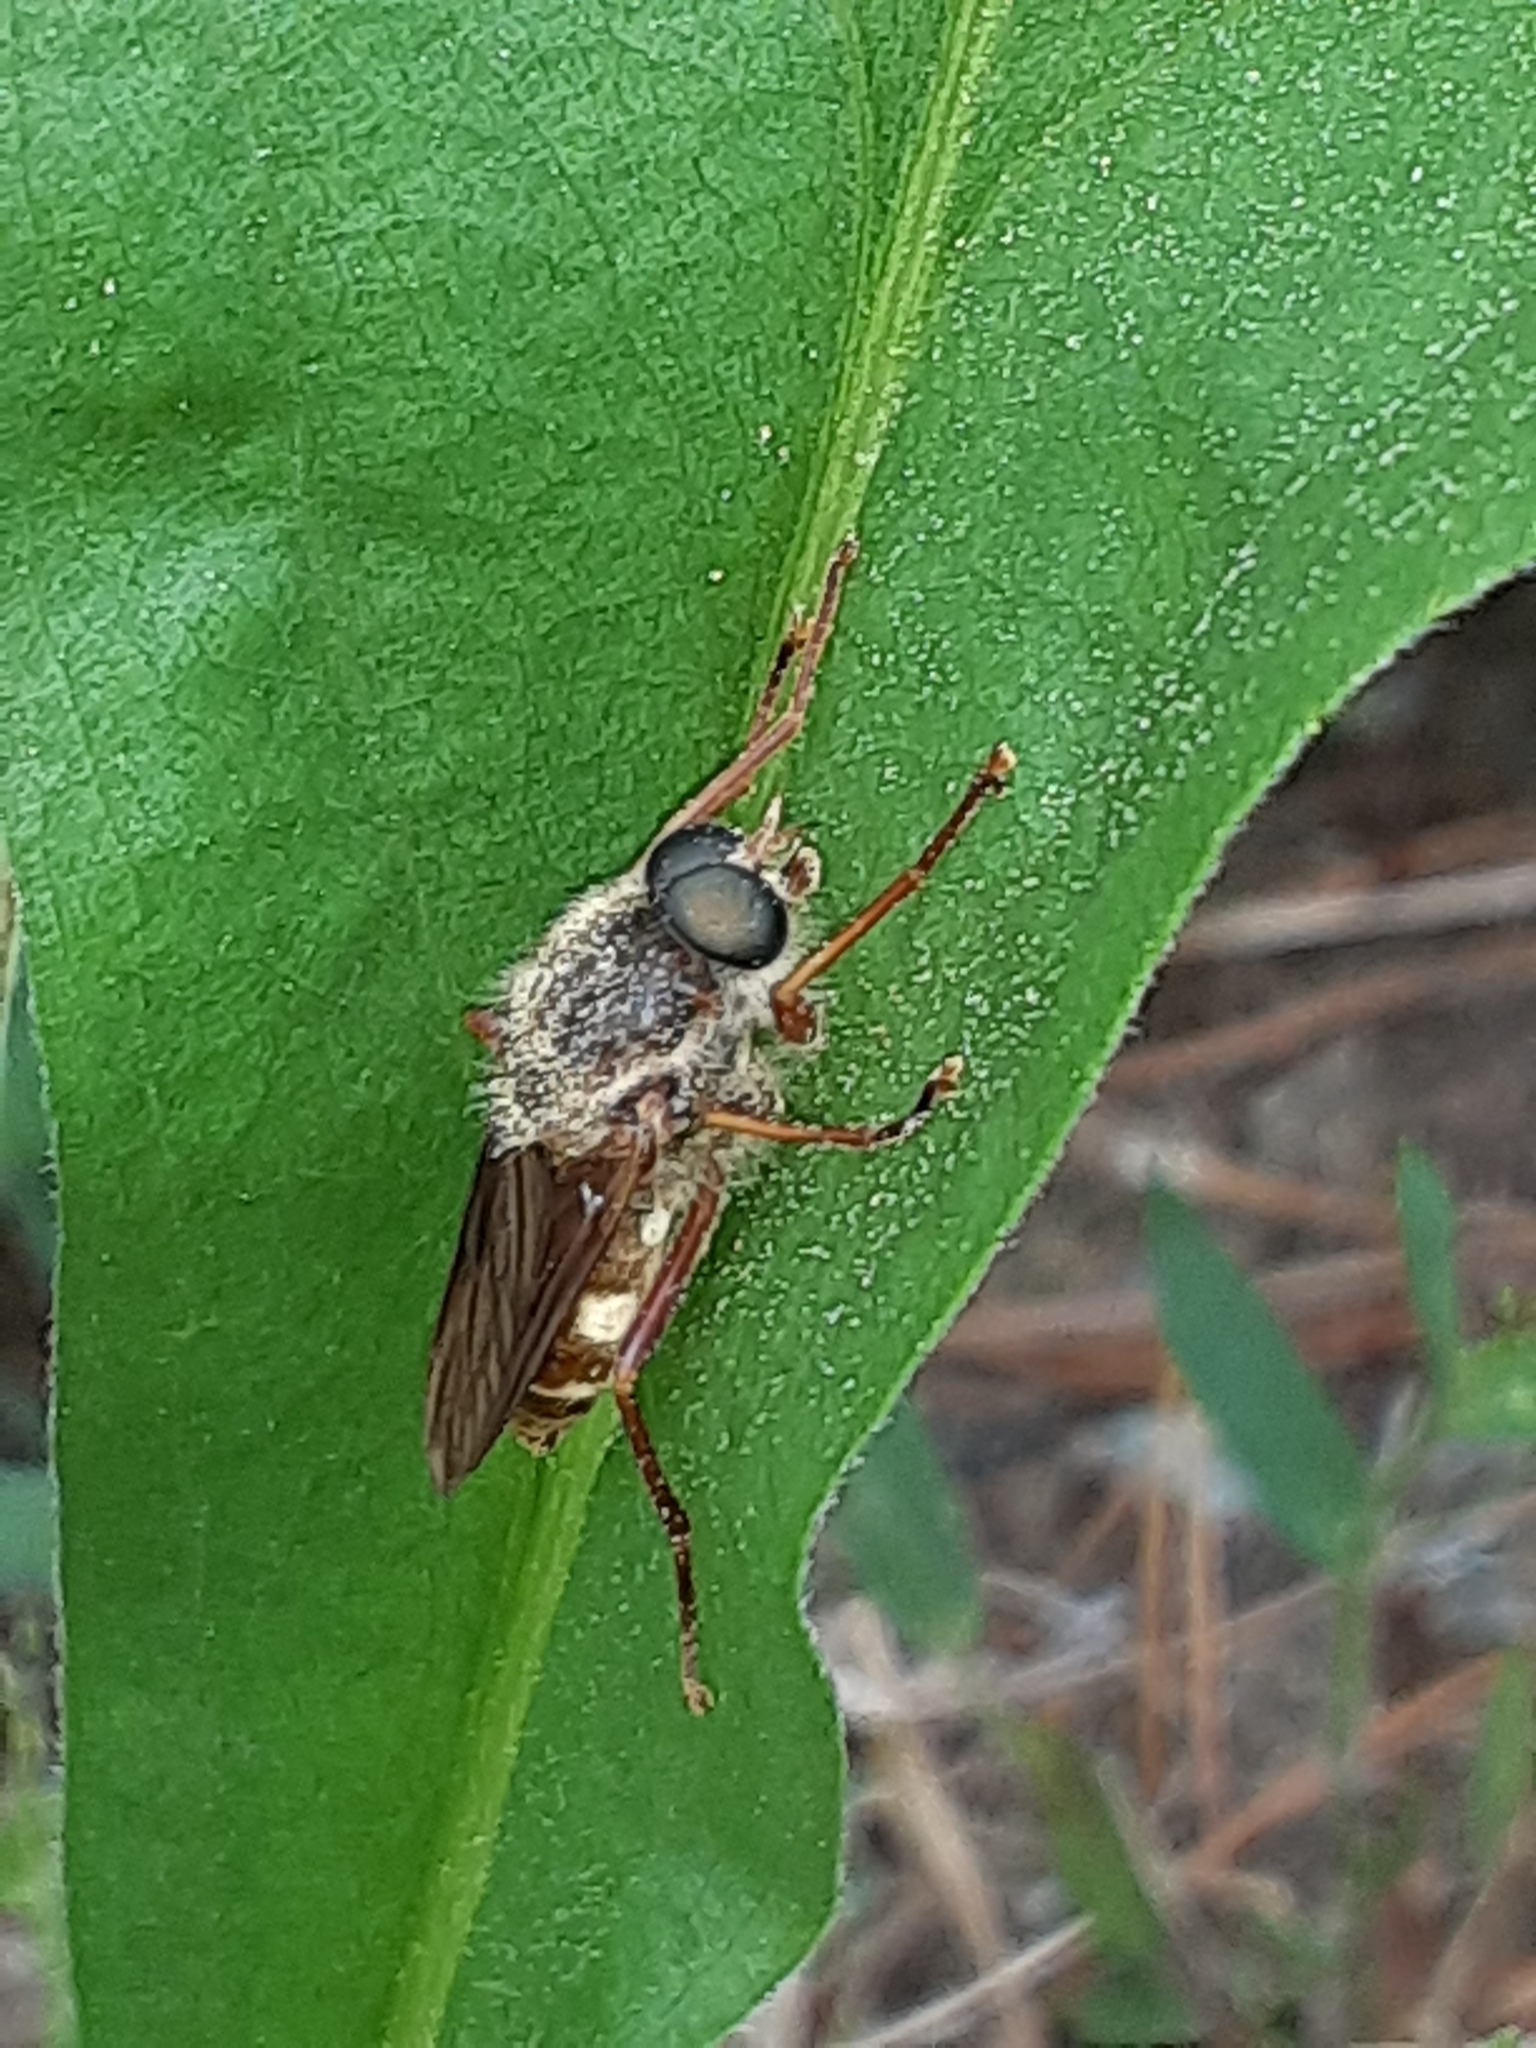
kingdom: Animalia
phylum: Arthropoda
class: Insecta
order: Diptera
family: Xylophagidae
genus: Coenomyia
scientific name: Coenomyia ferruginea
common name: Stink fly
